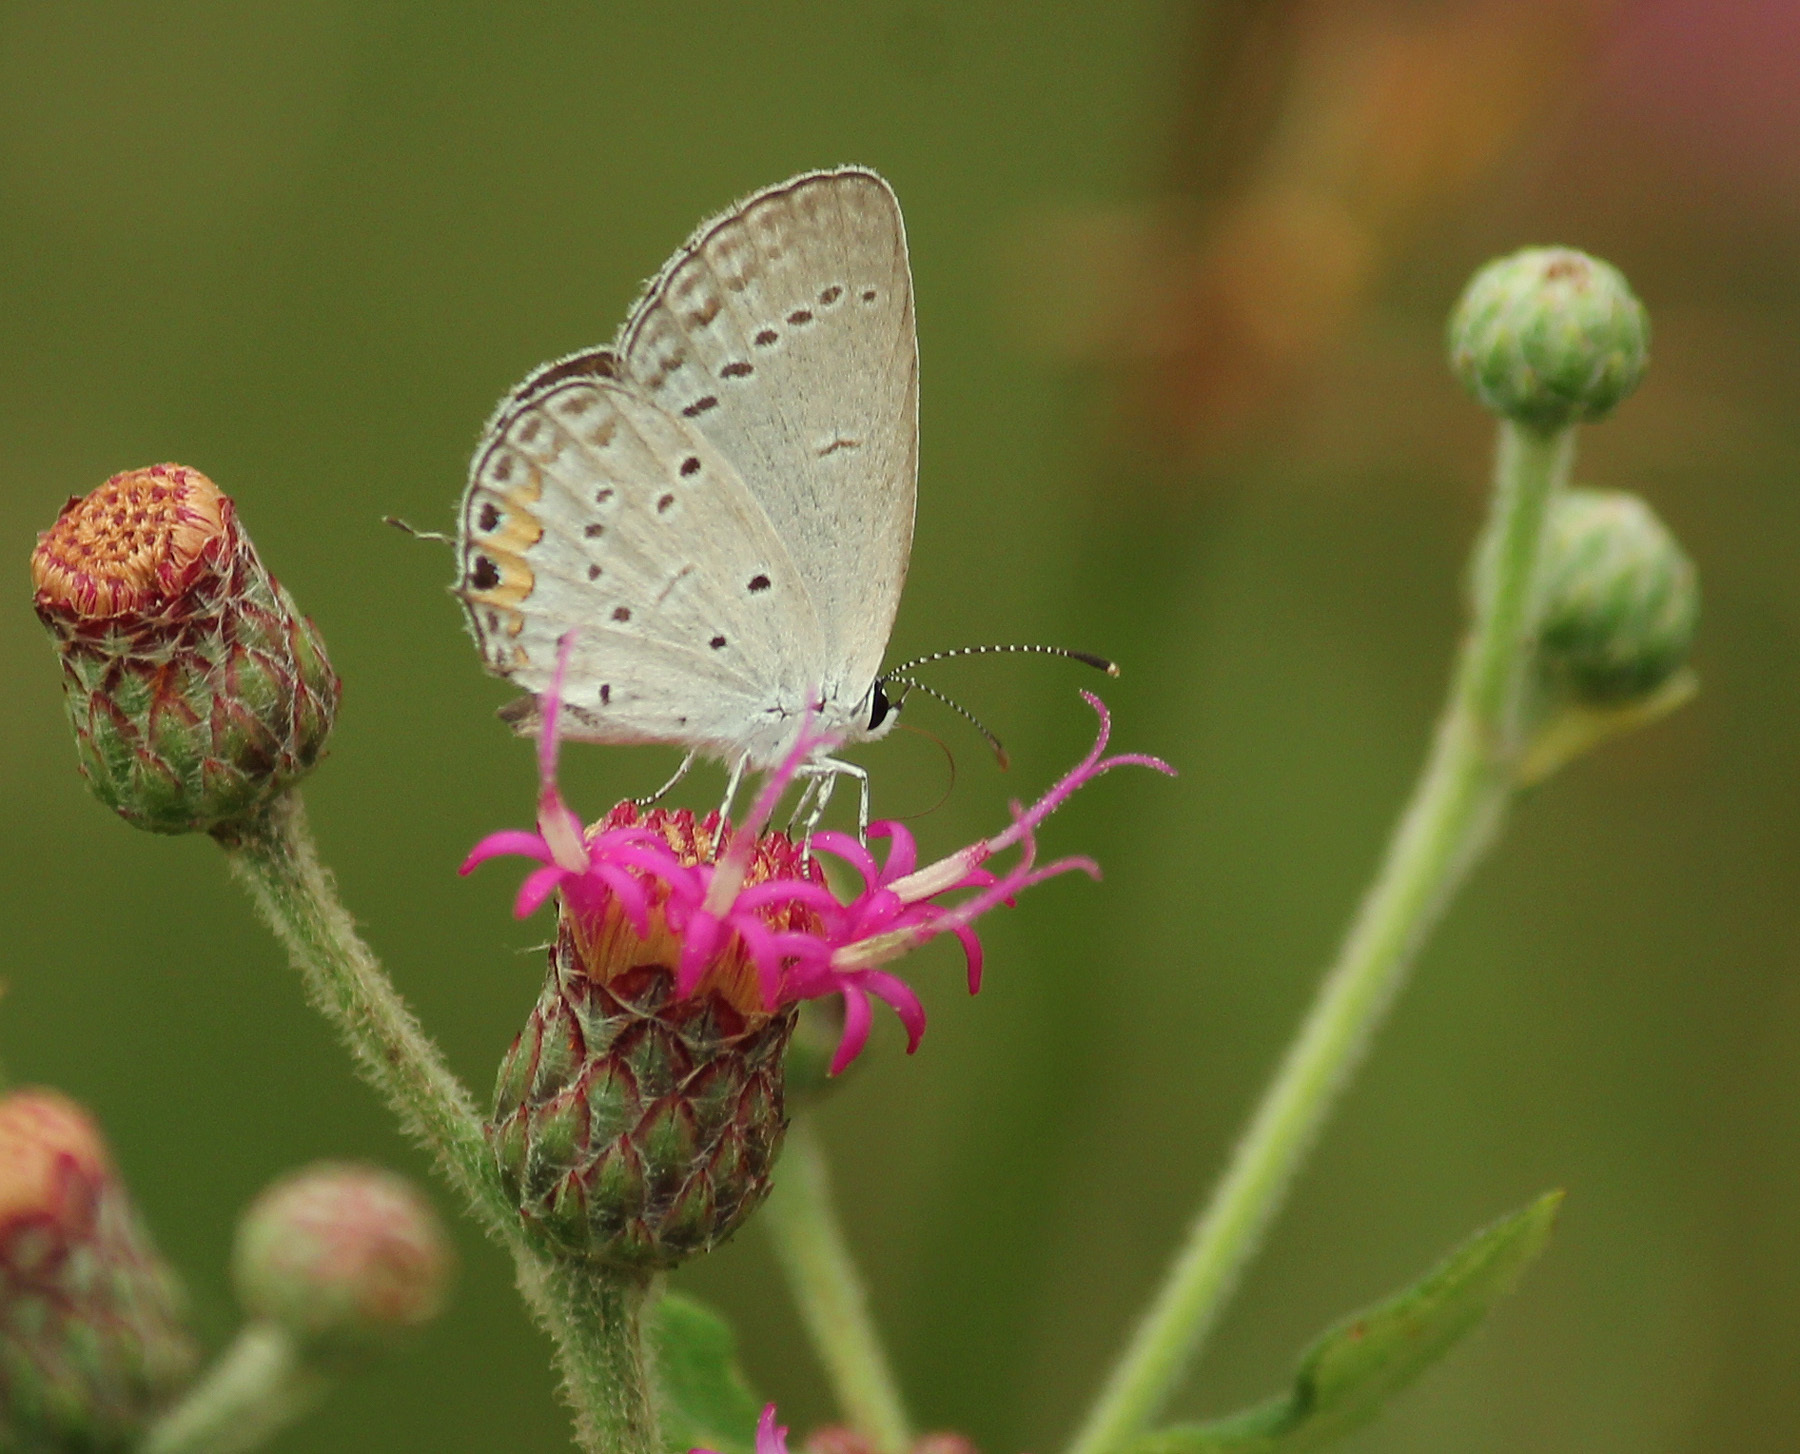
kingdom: Animalia
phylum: Arthropoda
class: Insecta
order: Lepidoptera
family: Lycaenidae
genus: Elkalyce
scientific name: Elkalyce comyntas
